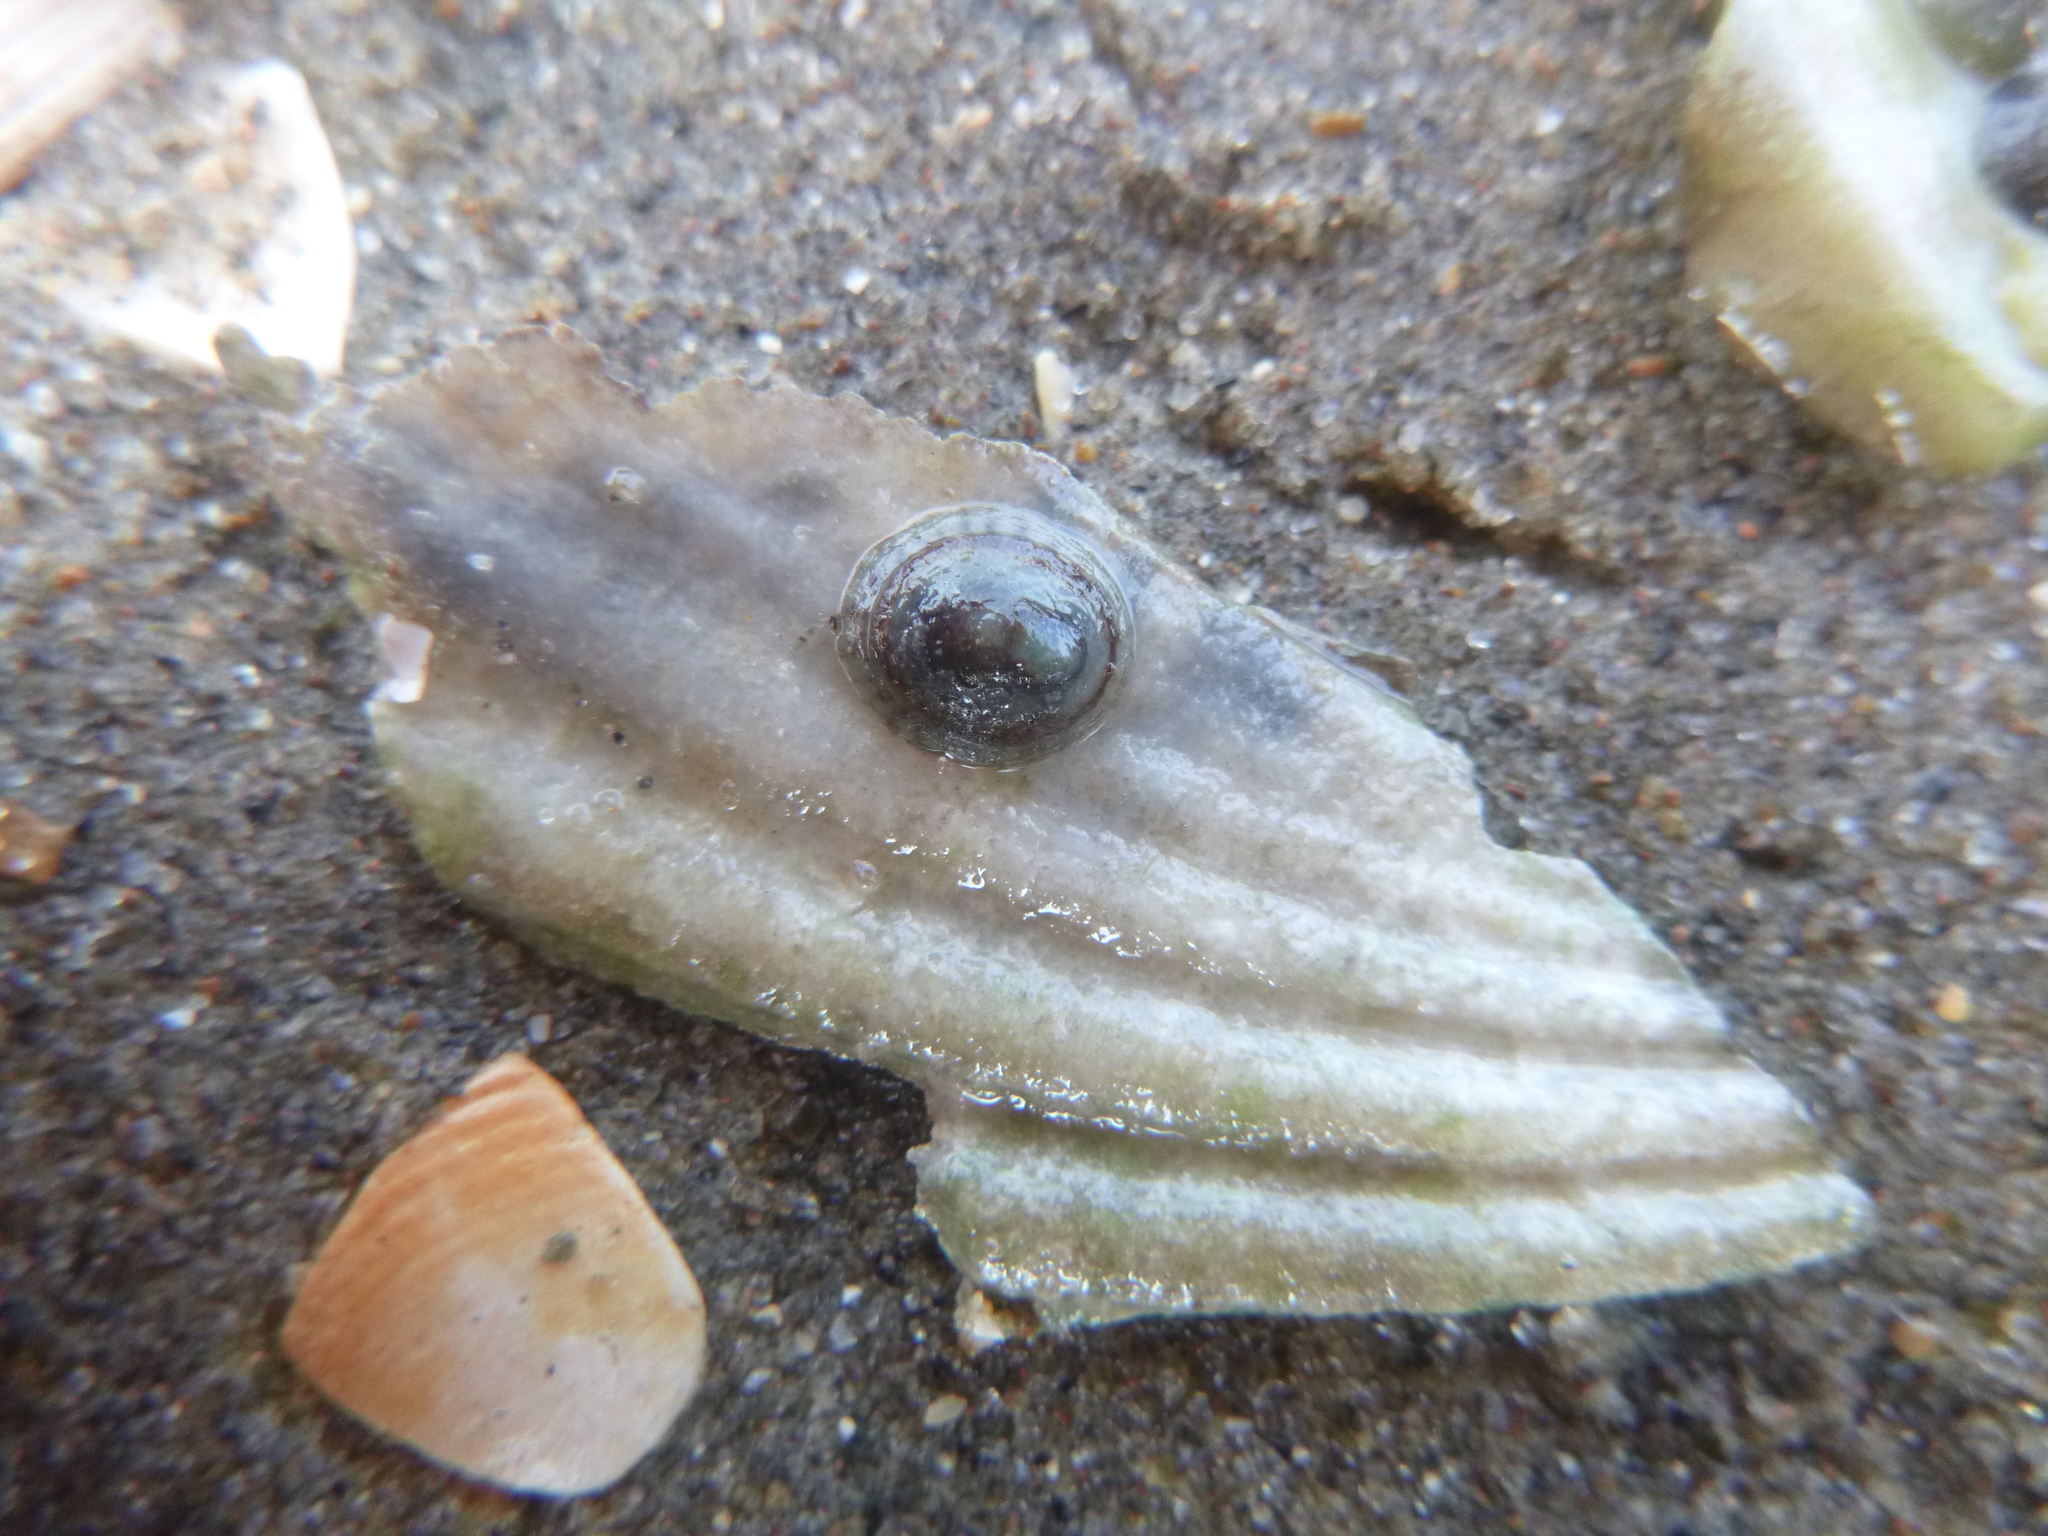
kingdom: Animalia
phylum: Mollusca
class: Gastropoda
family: Lottiidae
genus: Notoacmea
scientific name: Notoacmea potae
